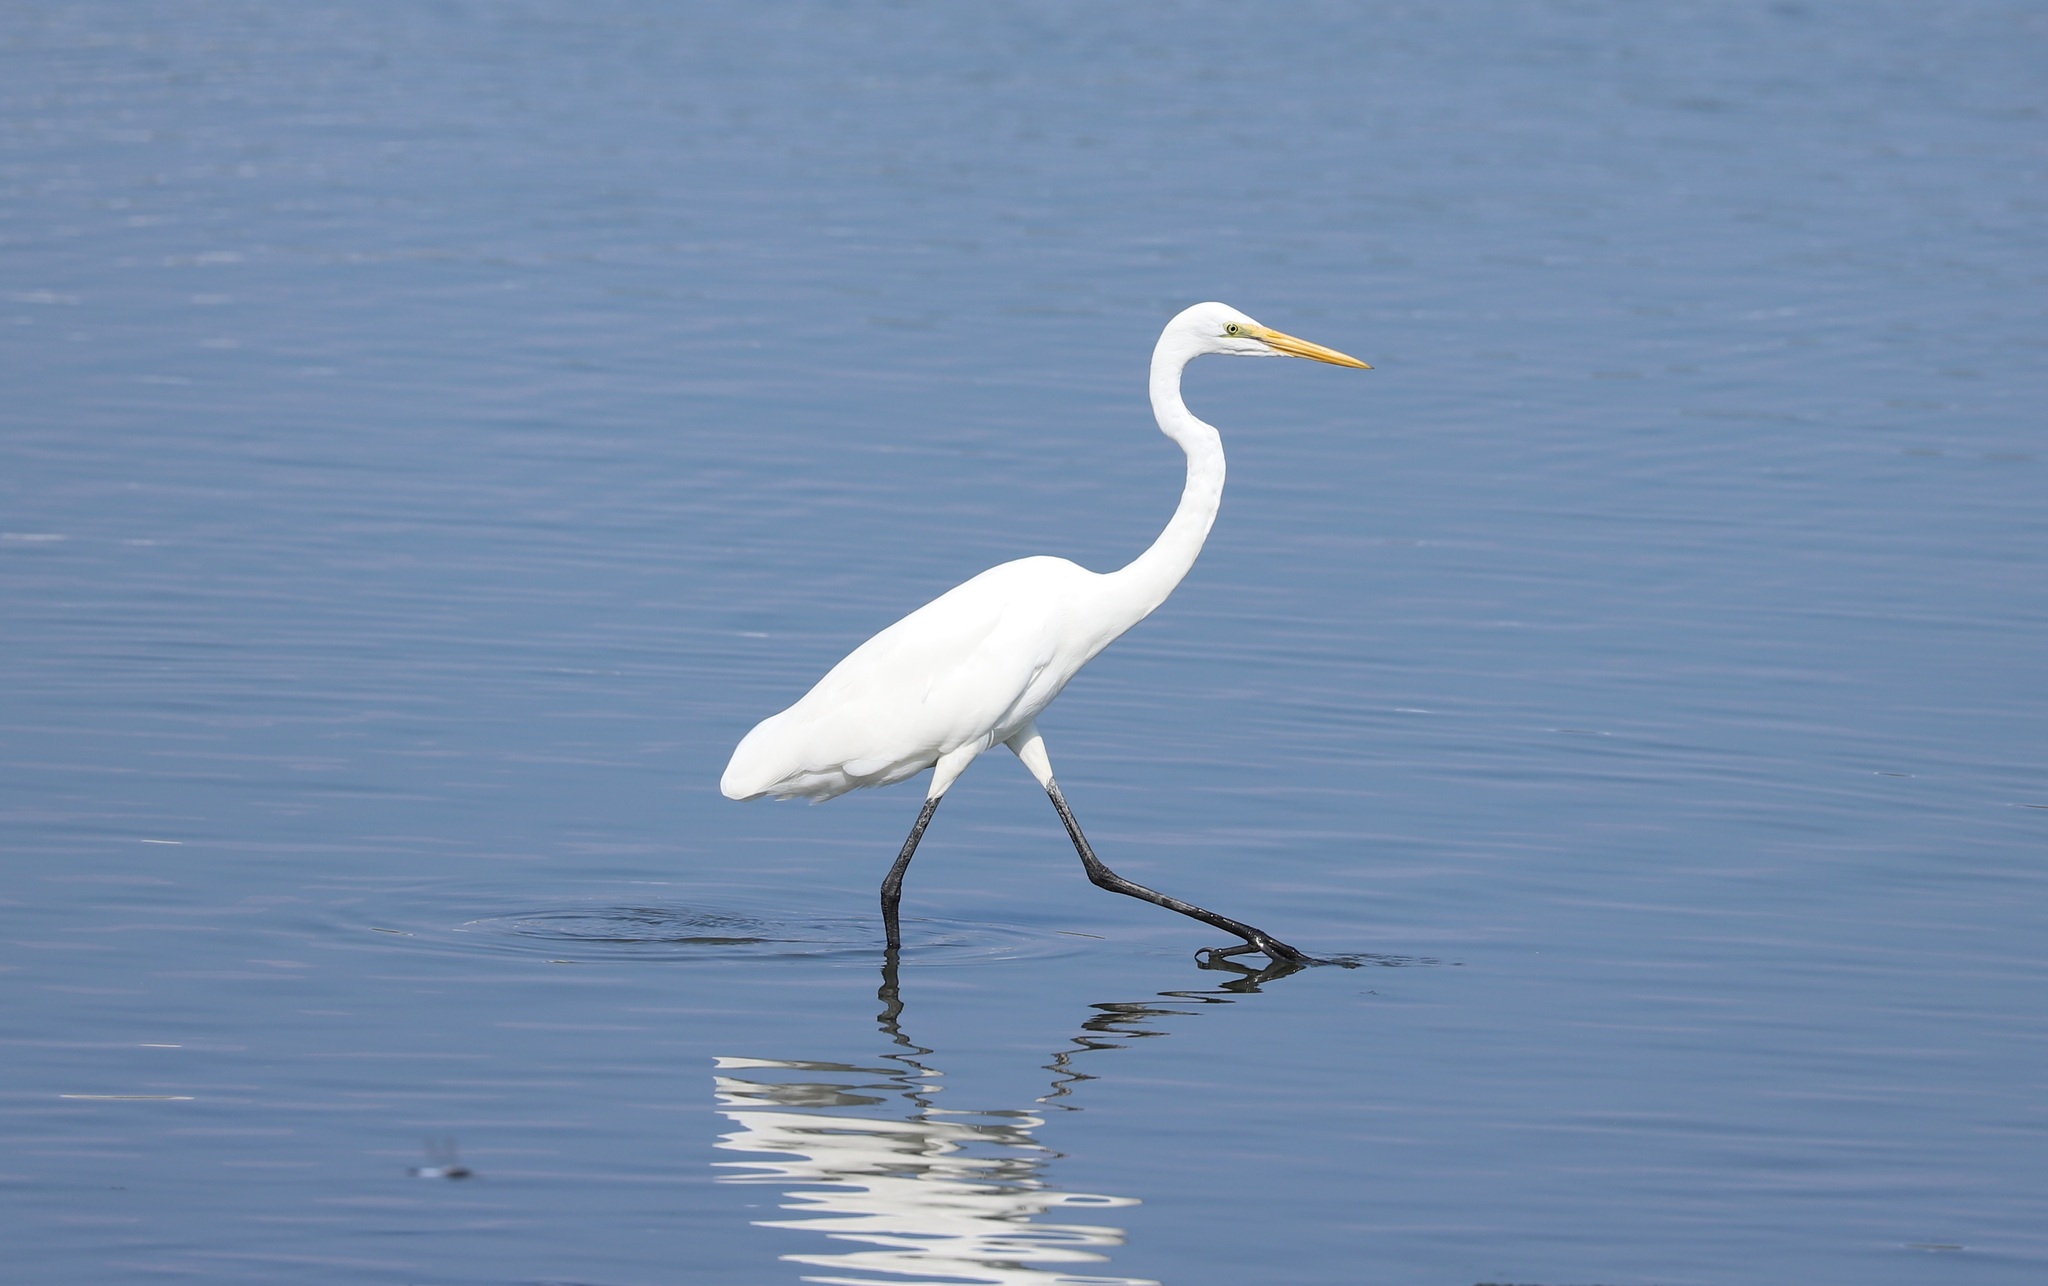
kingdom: Animalia
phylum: Chordata
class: Aves
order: Pelecaniformes
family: Ardeidae
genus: Ardea
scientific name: Ardea alba
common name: Great egret
